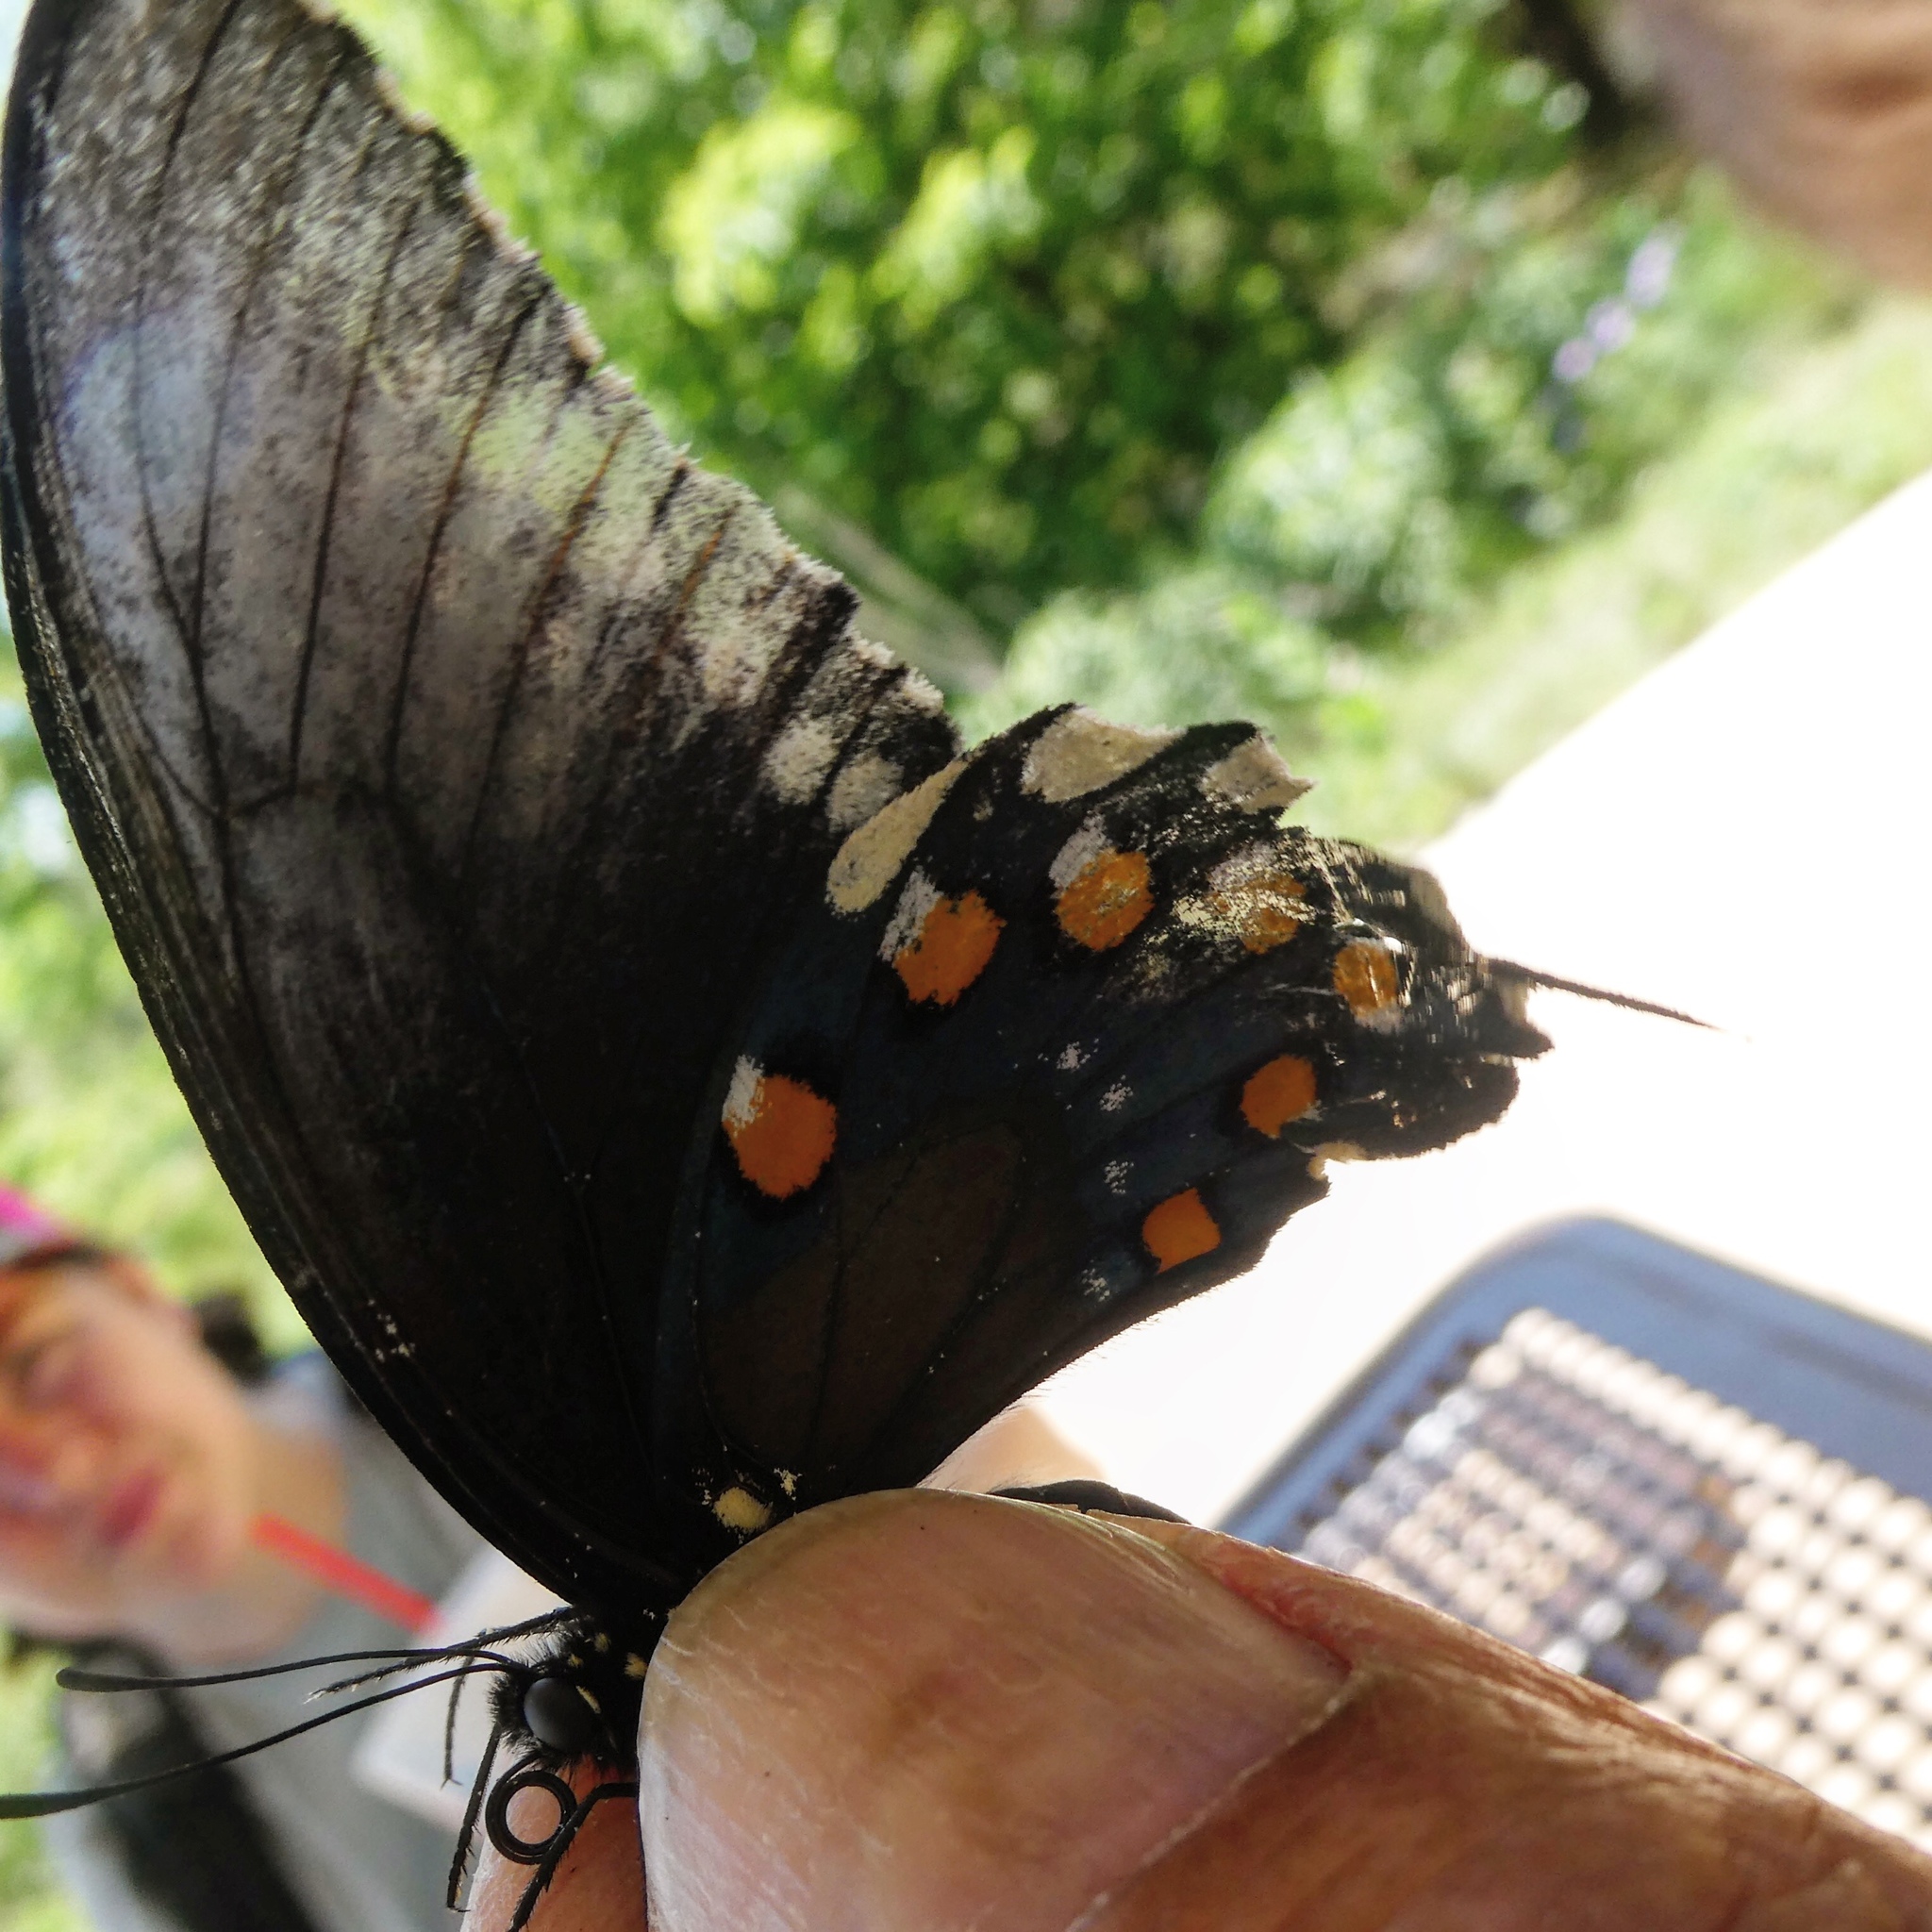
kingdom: Animalia
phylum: Arthropoda
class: Insecta
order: Lepidoptera
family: Papilionidae
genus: Battus
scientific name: Battus philenor
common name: Pipevine swallowtail
